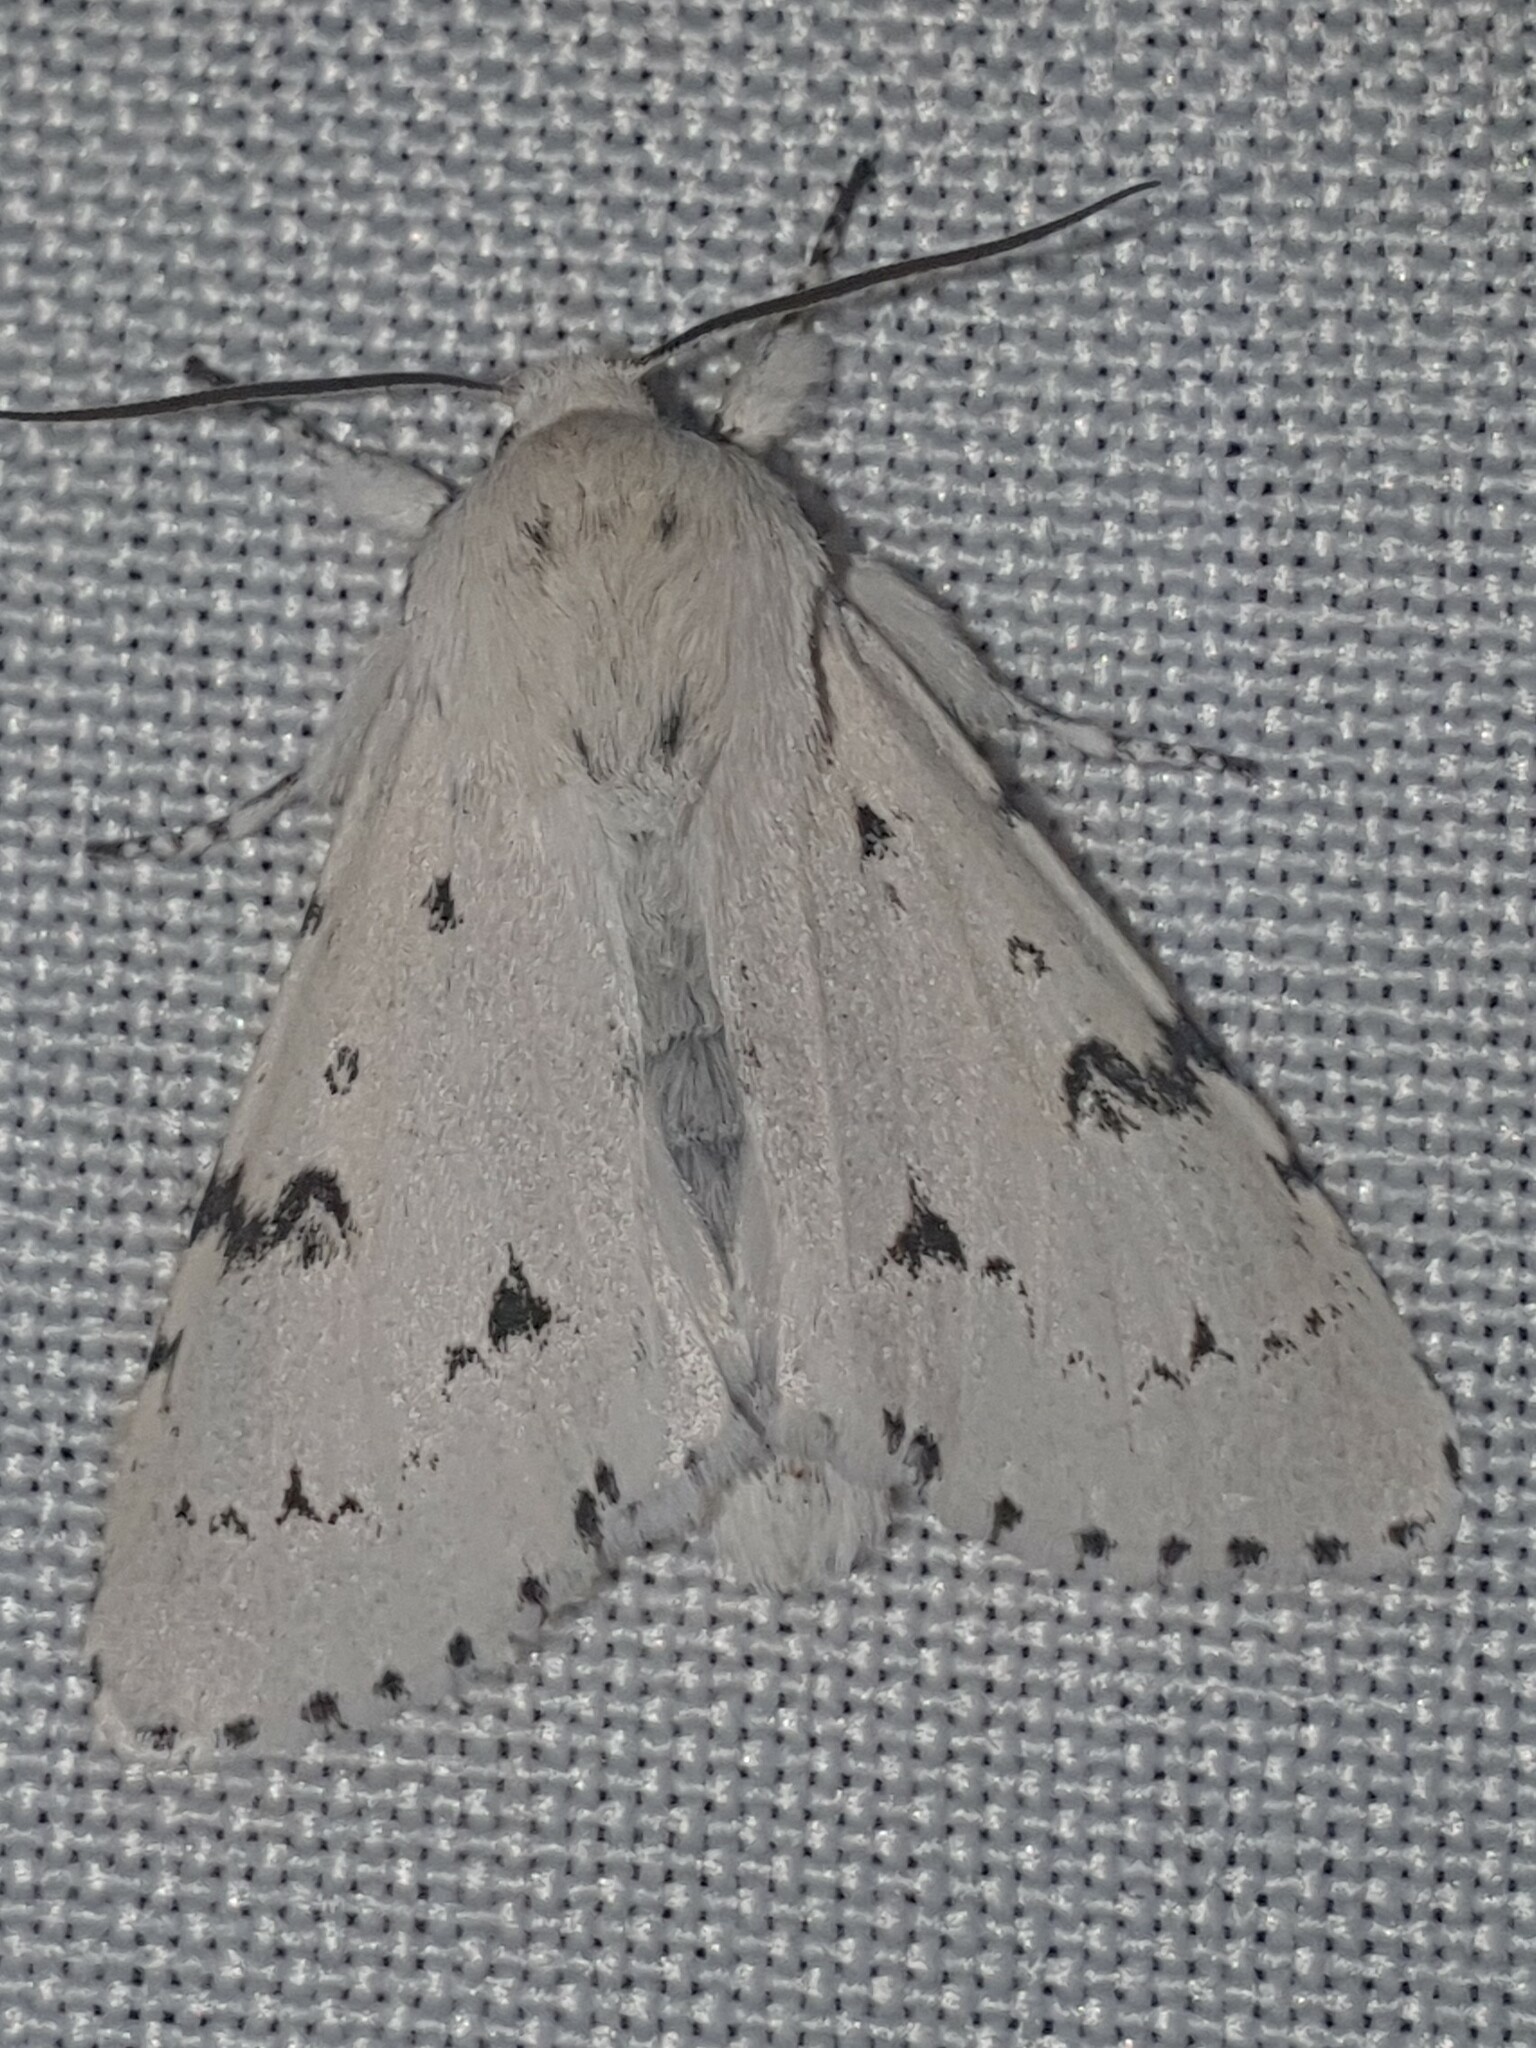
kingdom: Animalia
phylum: Arthropoda
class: Insecta
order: Lepidoptera
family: Noctuidae
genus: Acronicta
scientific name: Acronicta leporina
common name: Miller
